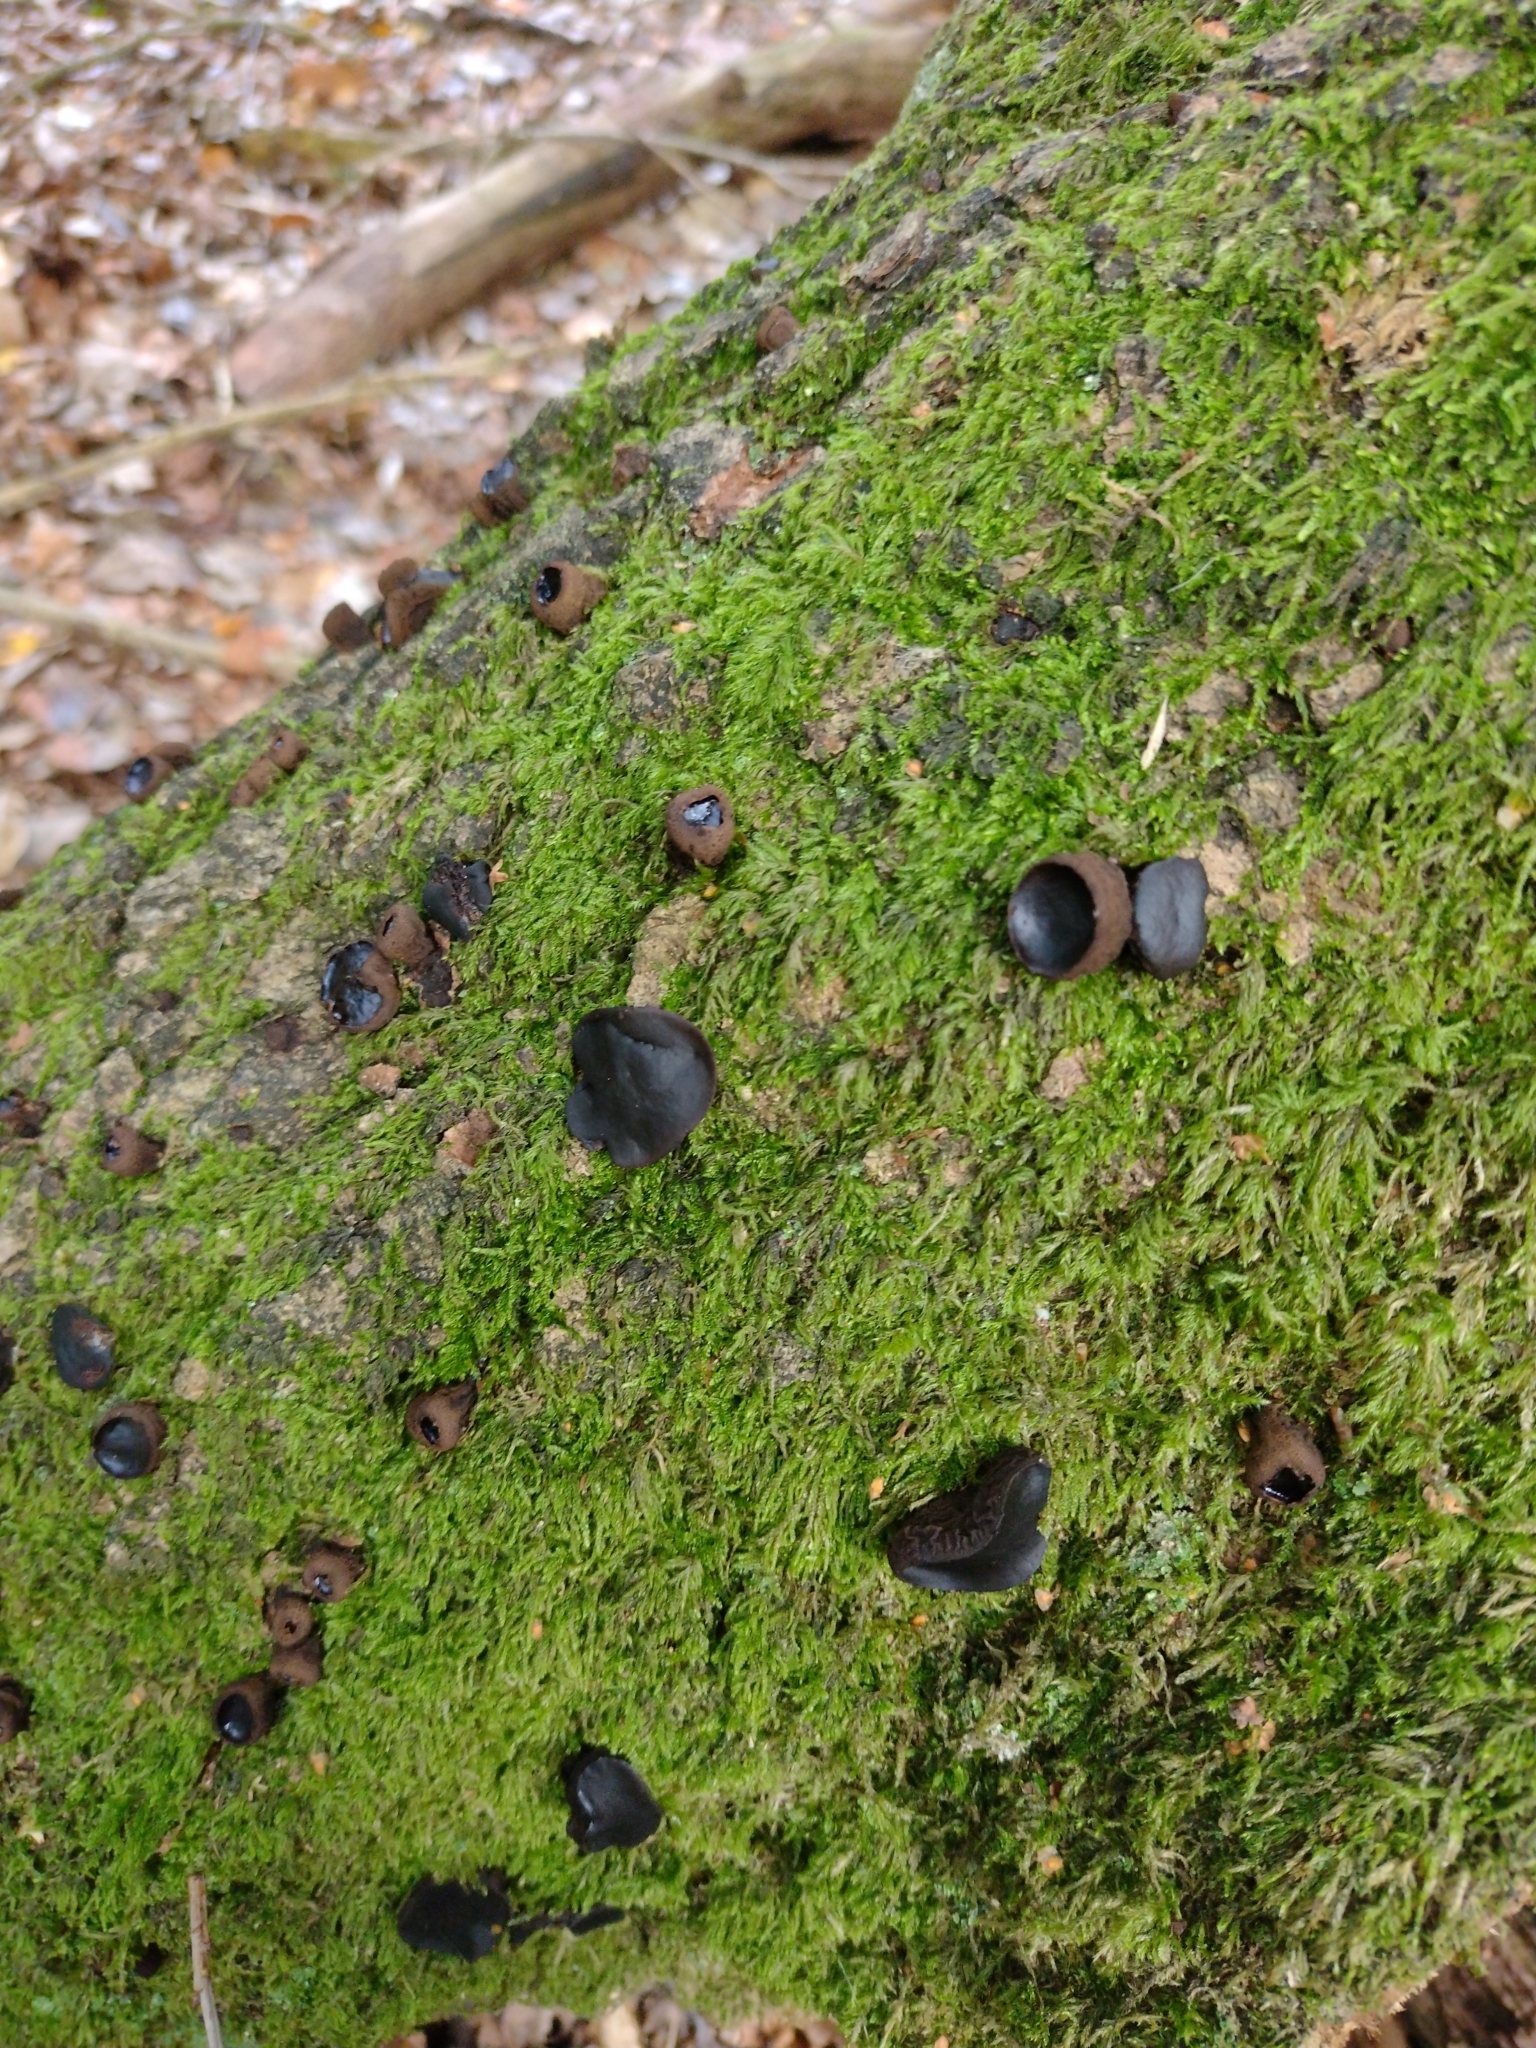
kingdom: Fungi
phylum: Ascomycota
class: Leotiomycetes
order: Phacidiales
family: Phacidiaceae
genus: Bulgaria
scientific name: Bulgaria inquinans
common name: Black bulgar
